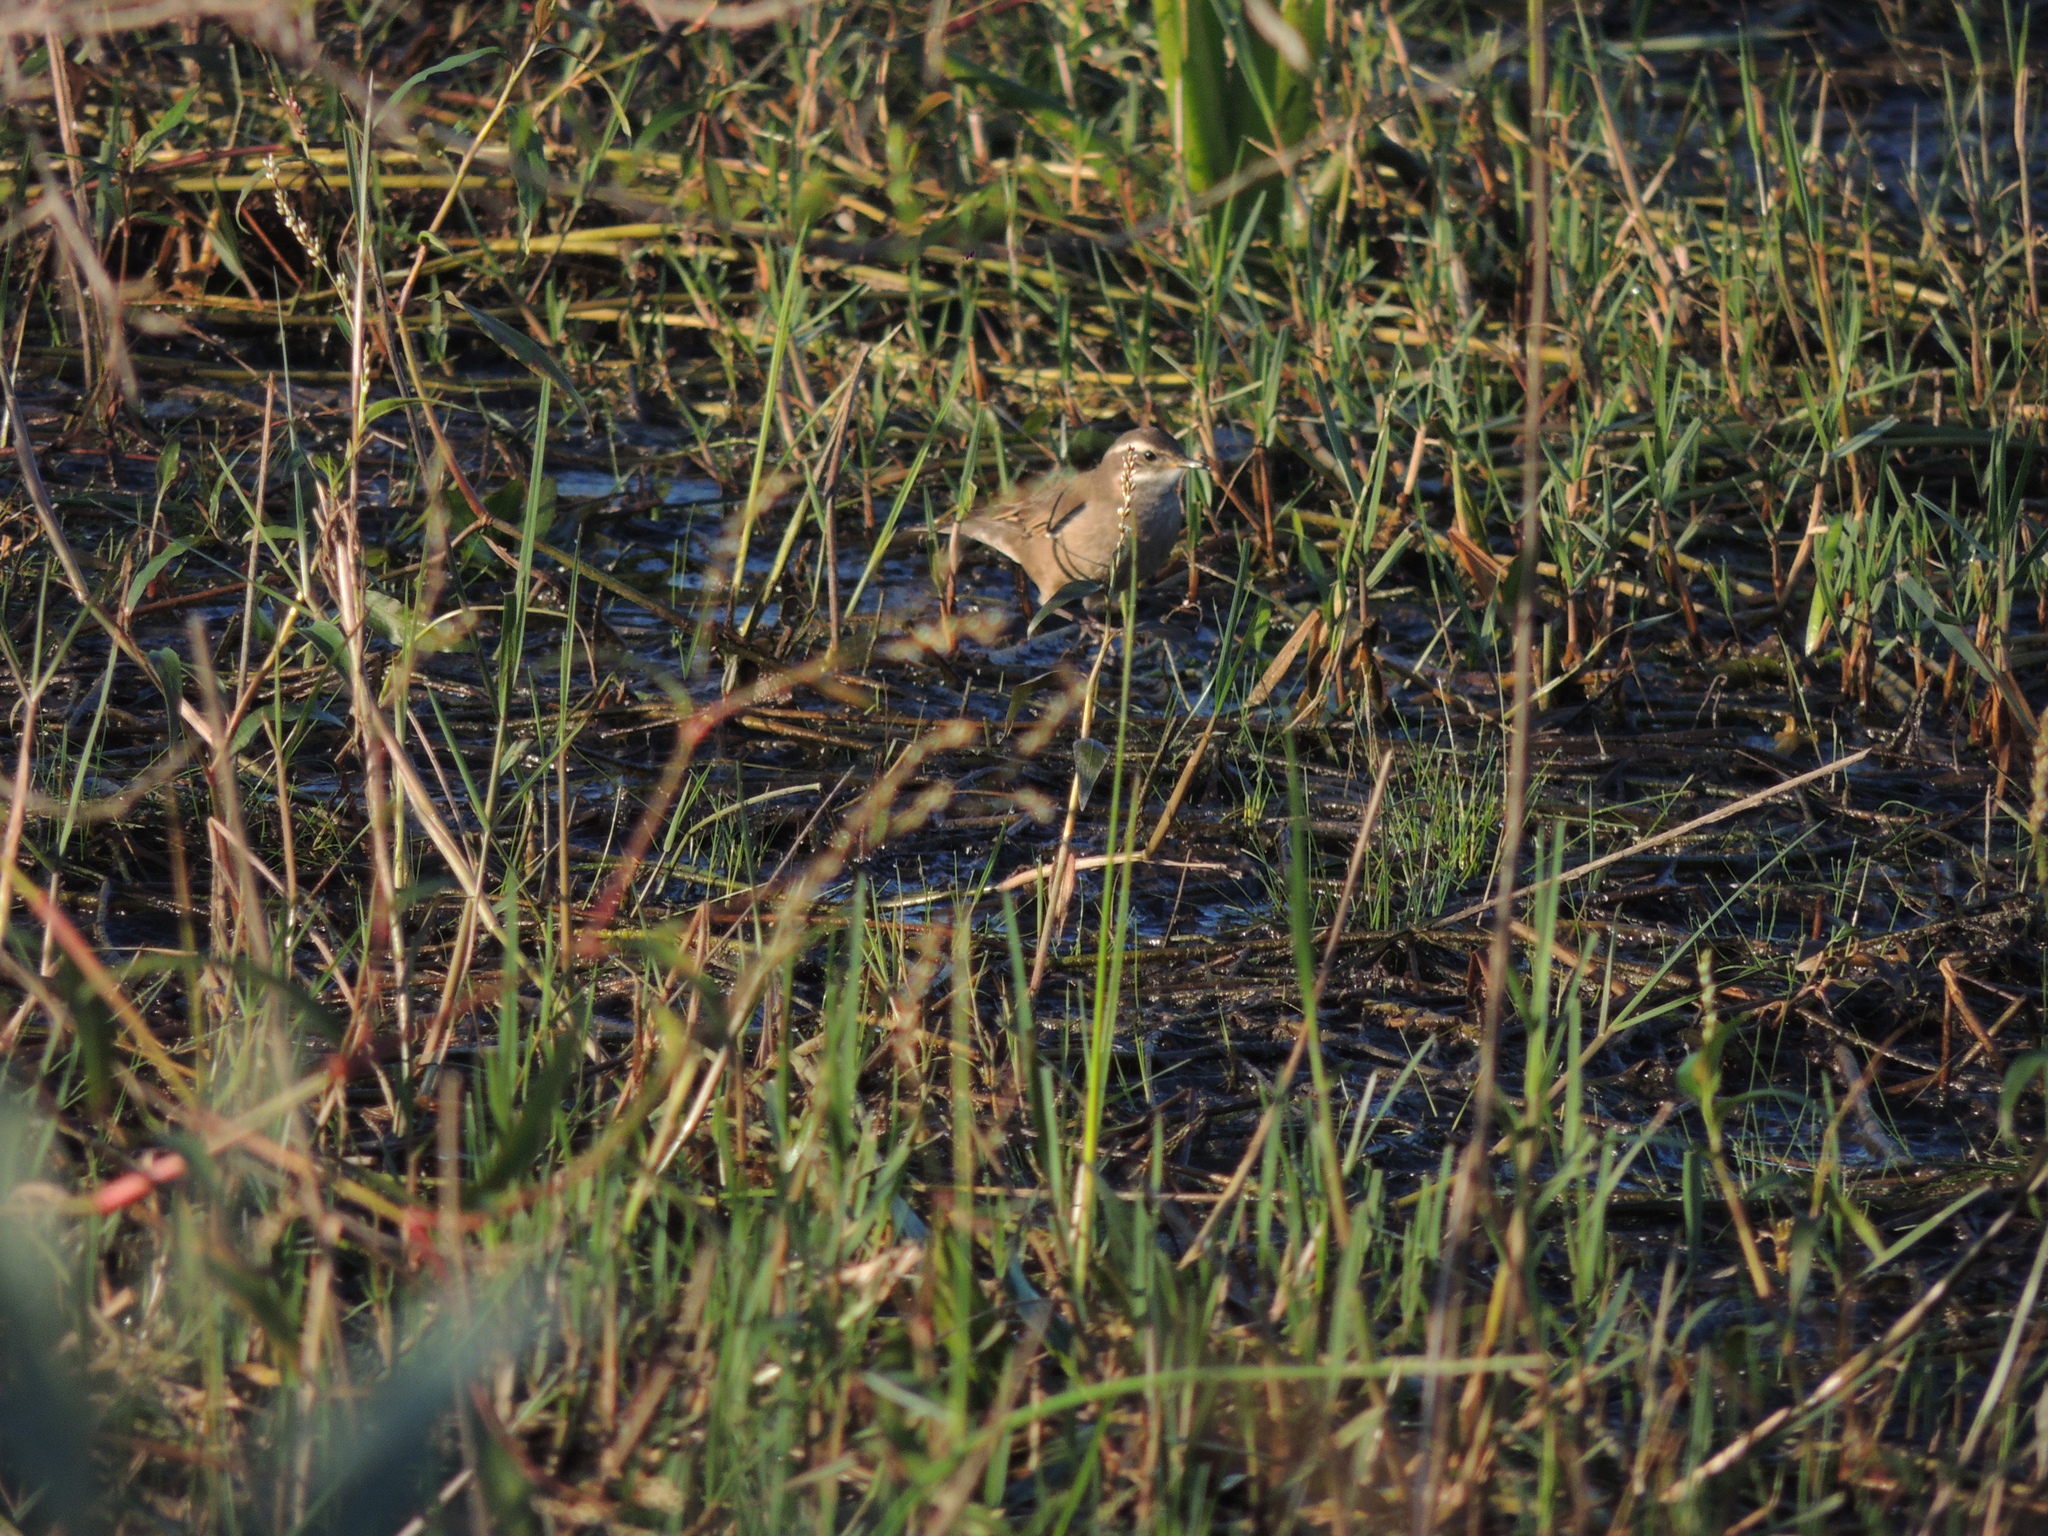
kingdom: Animalia
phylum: Chordata
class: Aves
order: Passeriformes
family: Furnariidae
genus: Cinclodes
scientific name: Cinclodes fuscus
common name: Buff-winged cinclodes
